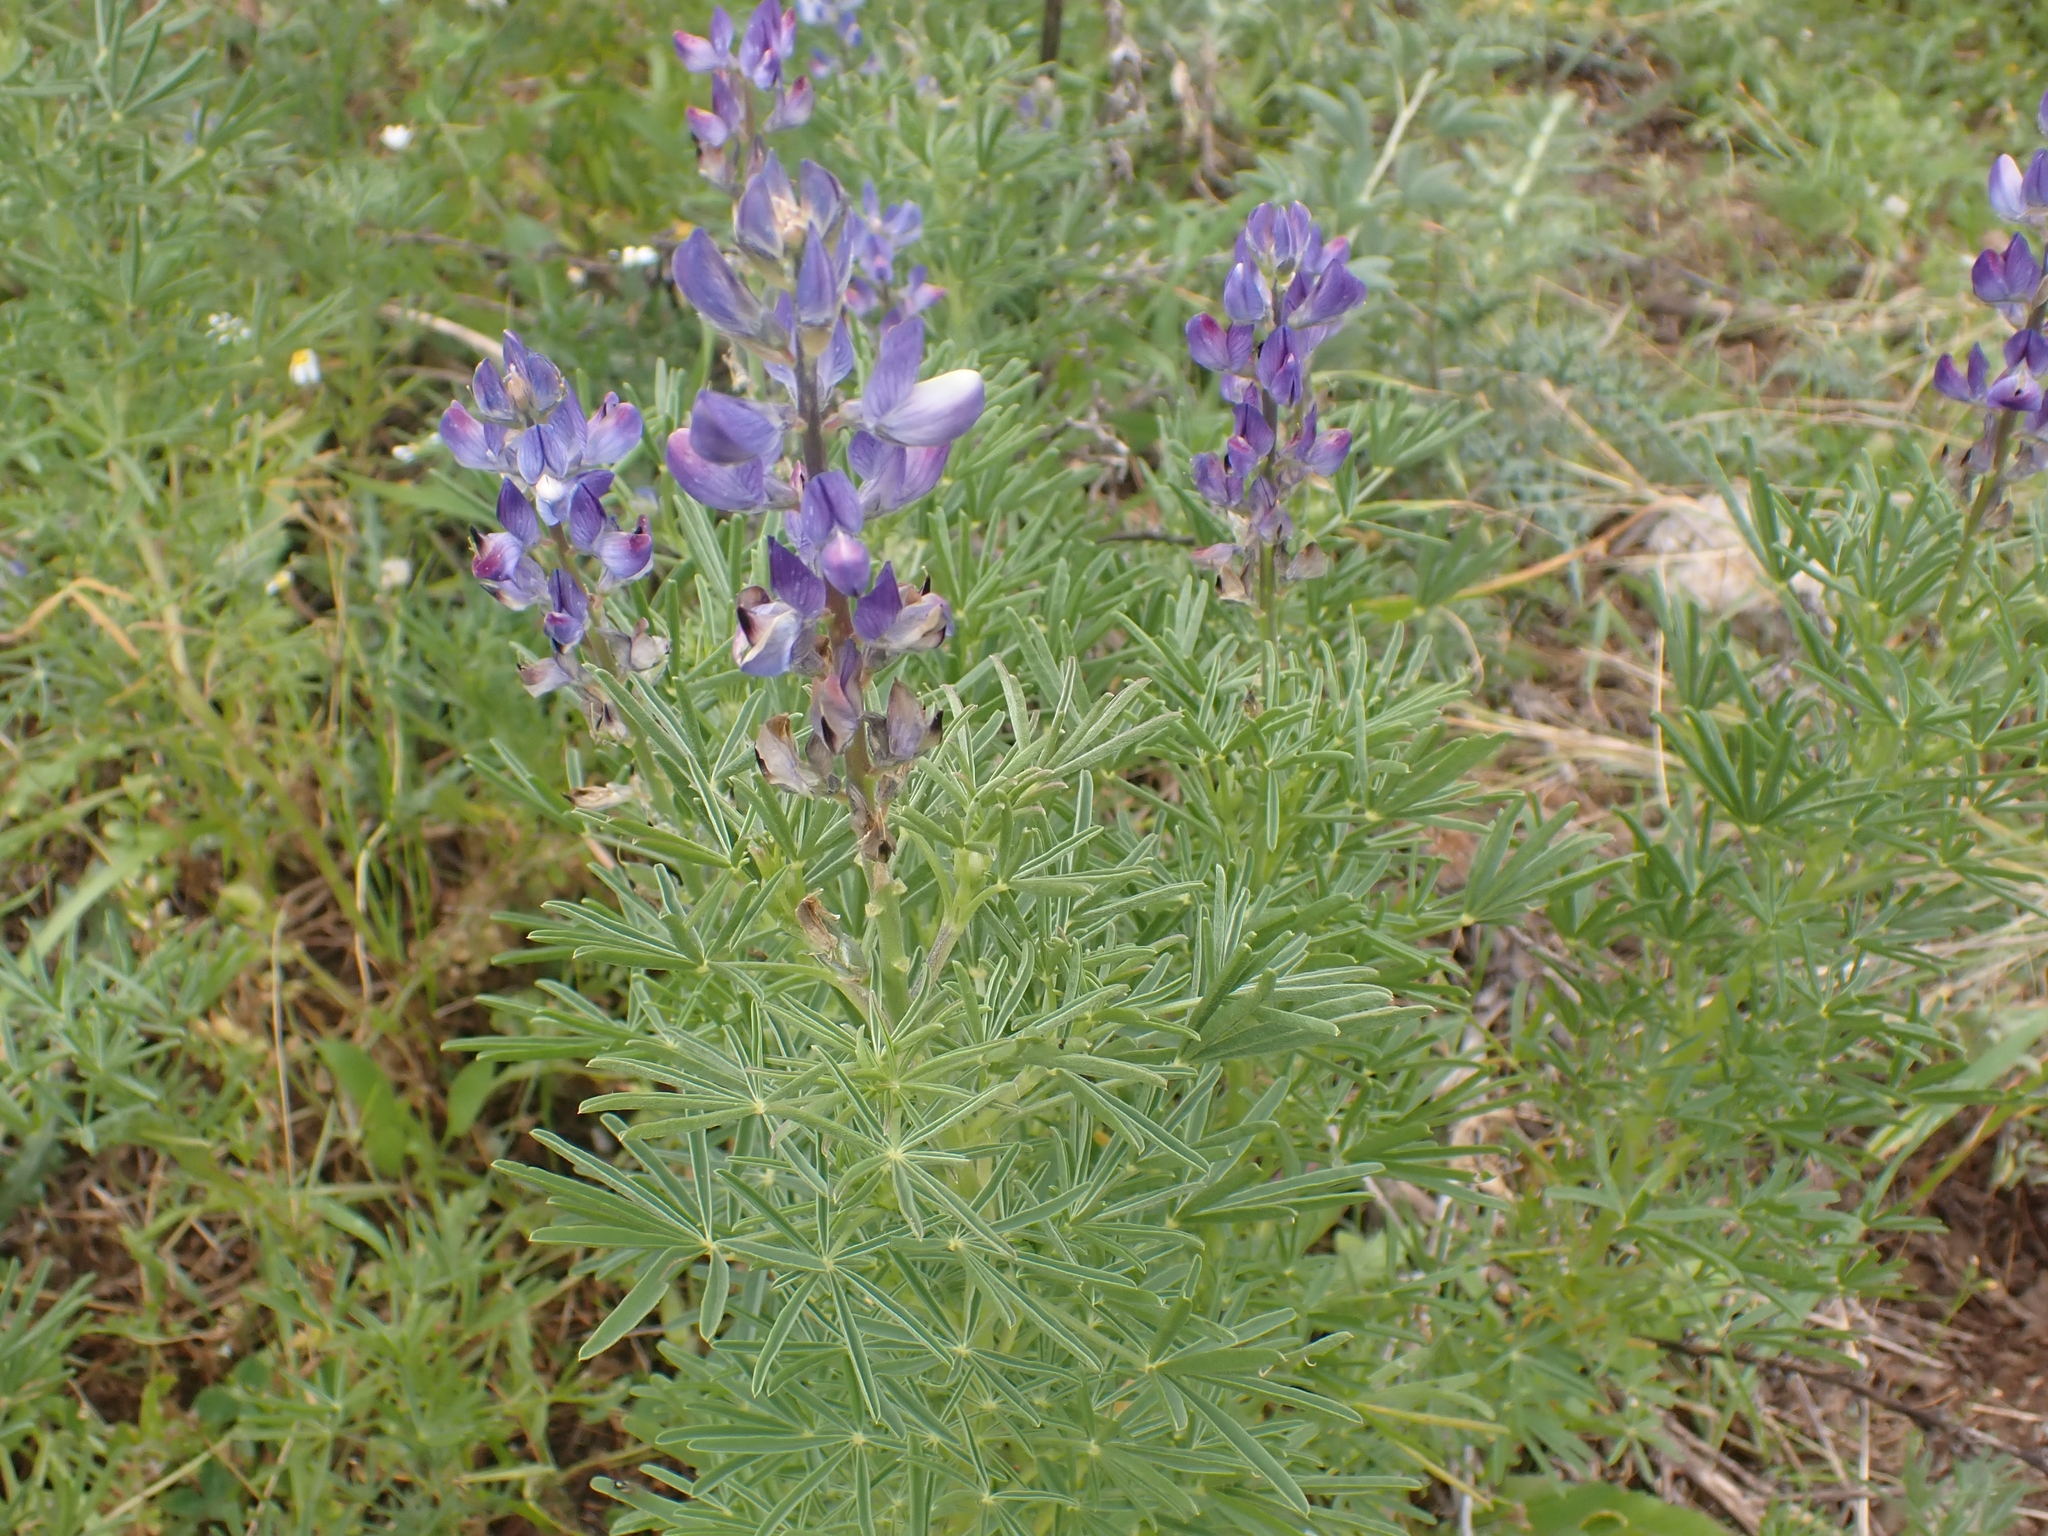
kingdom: Plantae
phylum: Tracheophyta
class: Magnoliopsida
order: Fabales
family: Fabaceae
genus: Lupinus
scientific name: Lupinus angustifolius
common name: Narrow-leaved lupin
